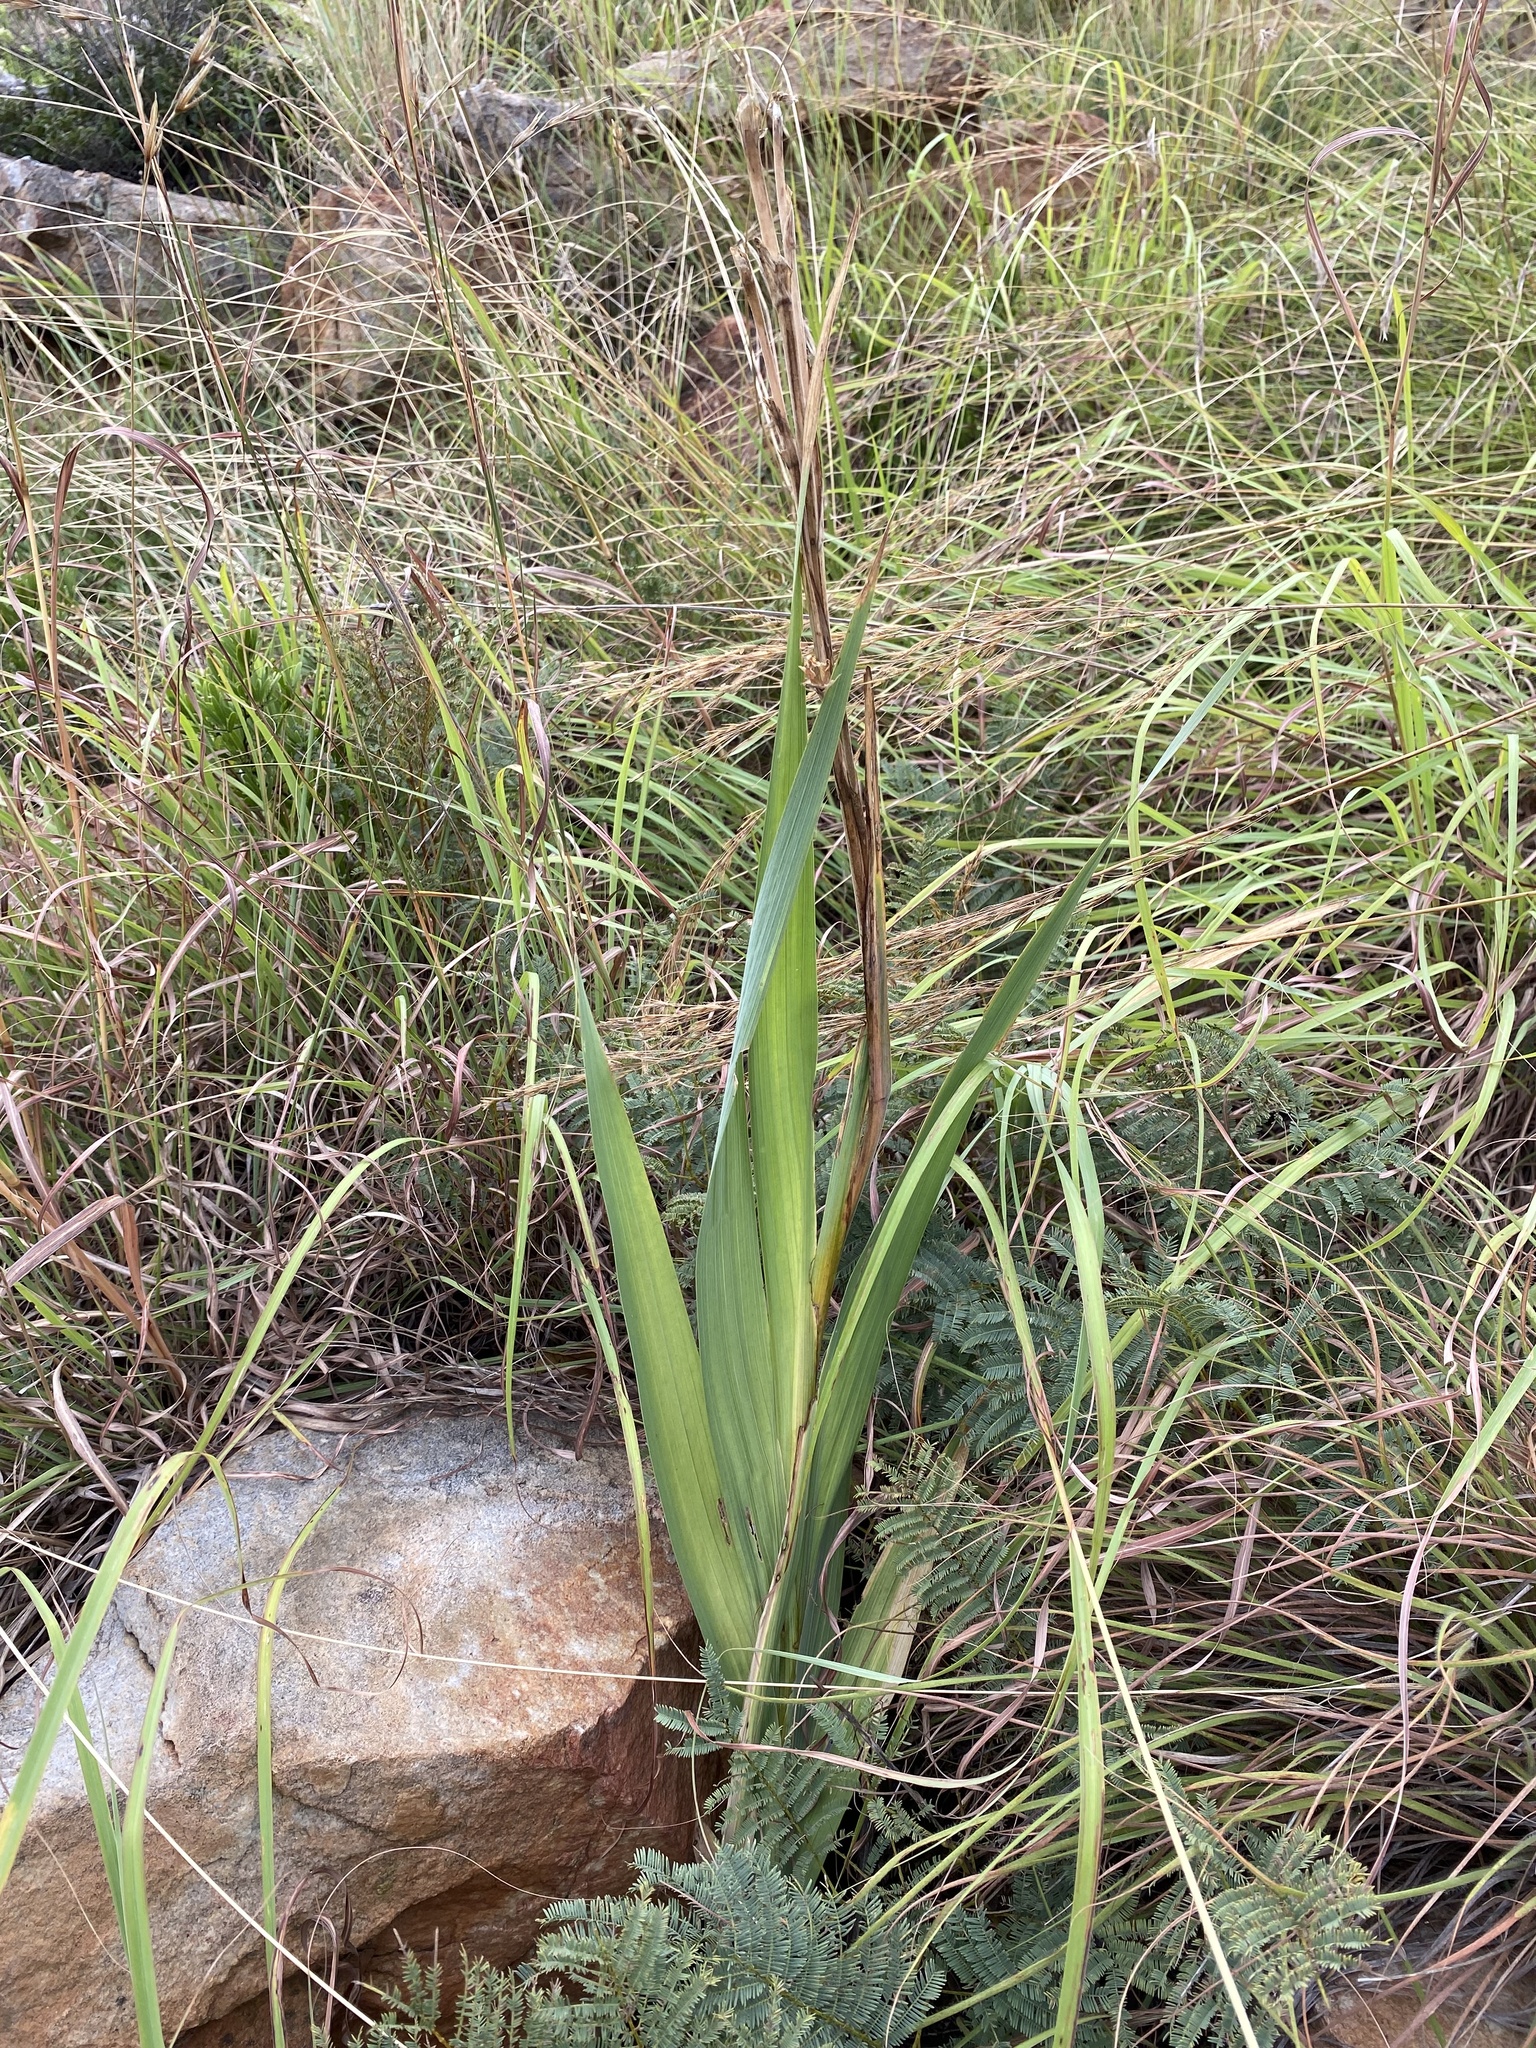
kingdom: Plantae
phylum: Tracheophyta
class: Liliopsida
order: Asparagales
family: Iridaceae
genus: Gladiolus
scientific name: Gladiolus scabridus
